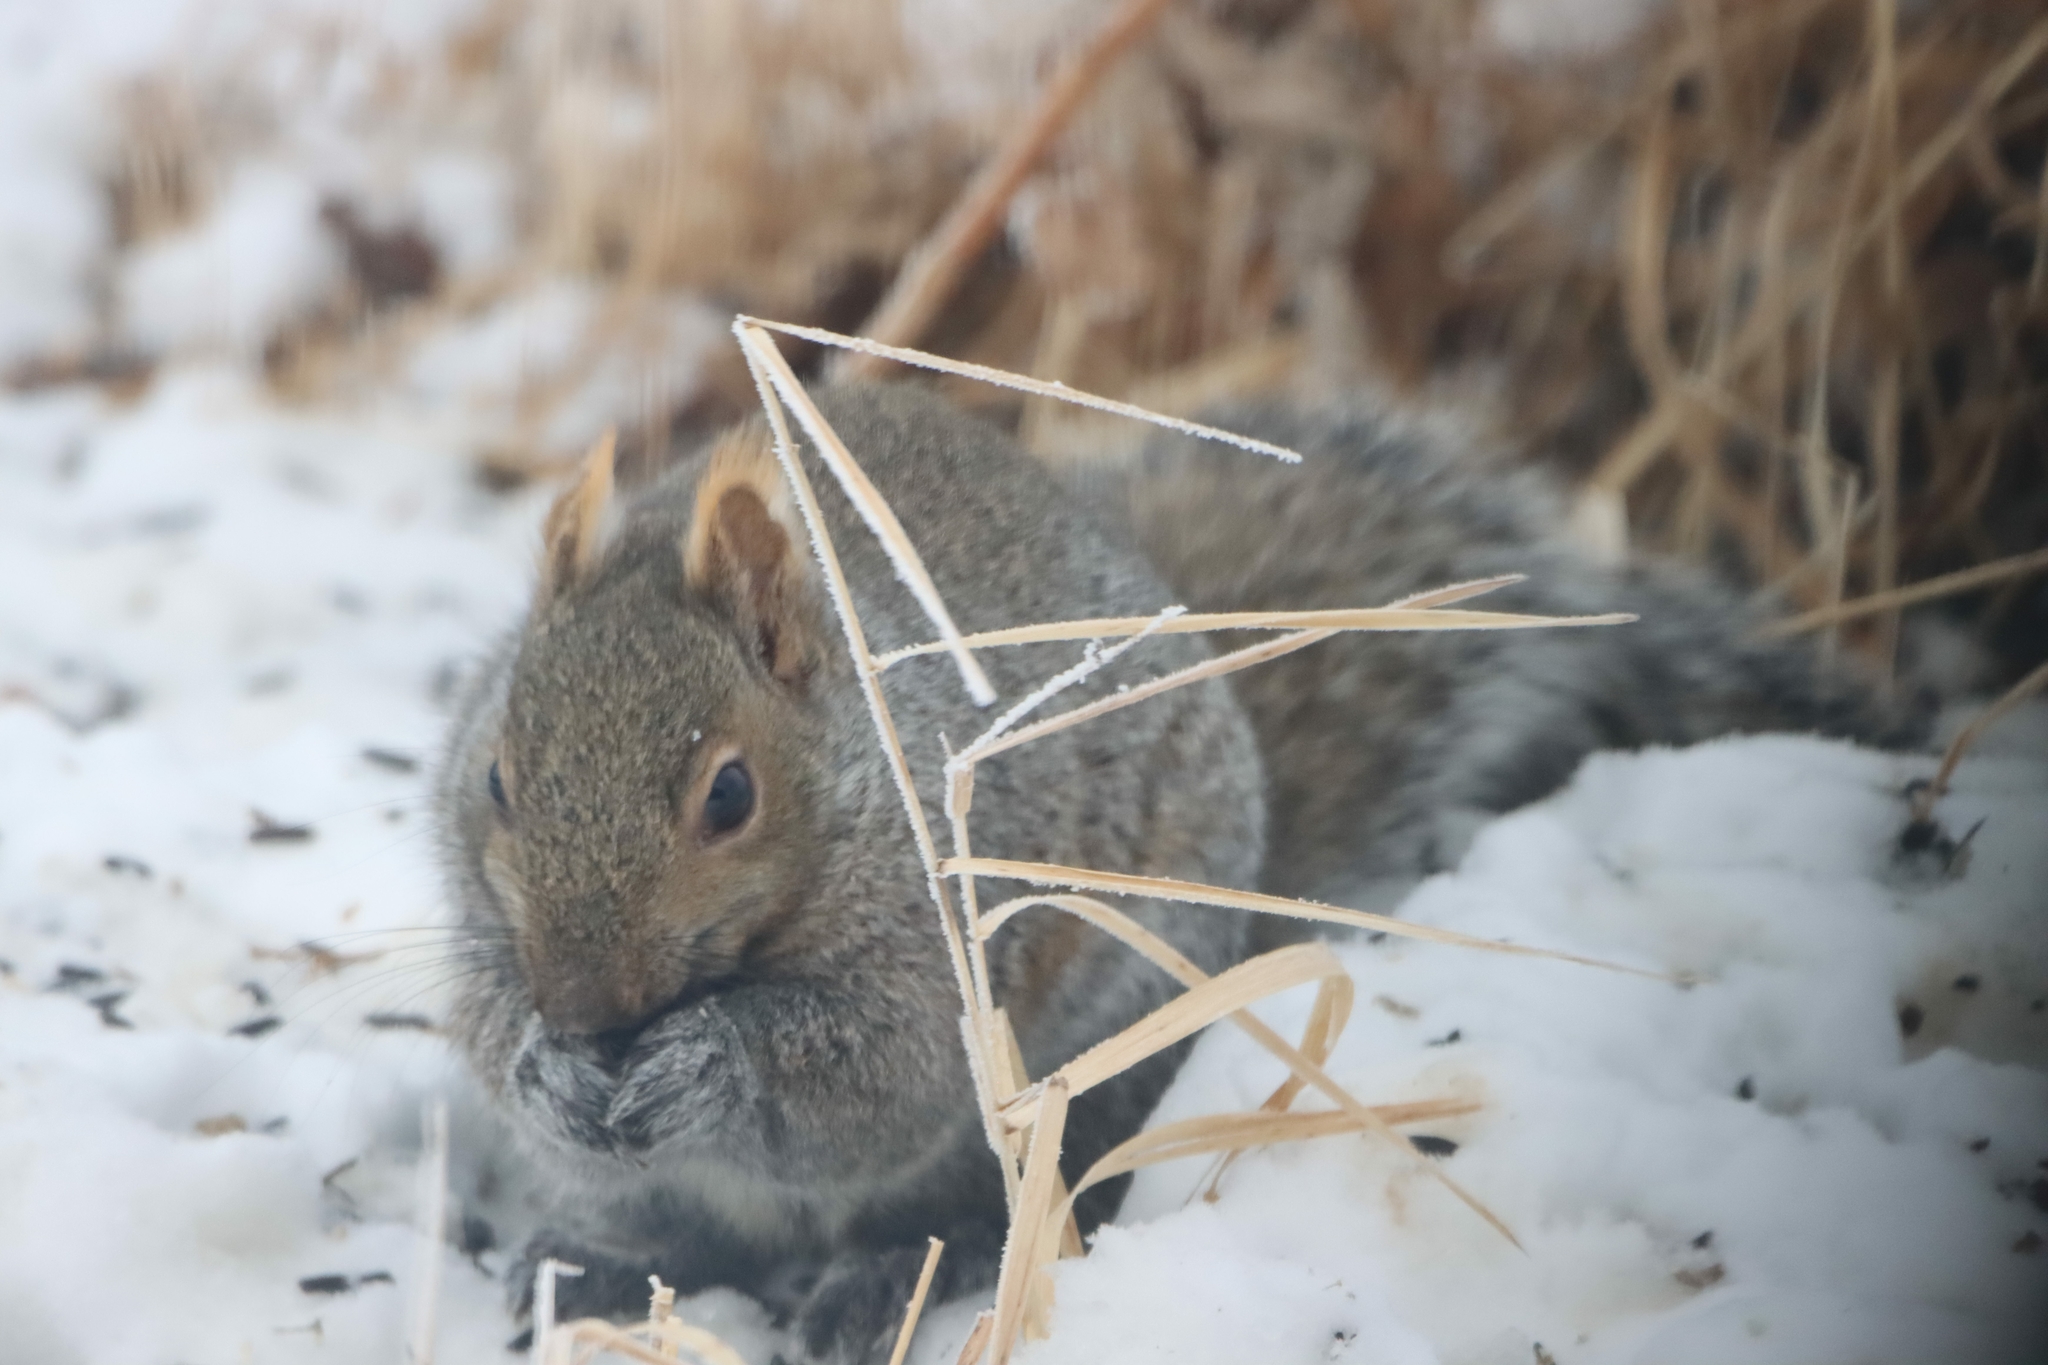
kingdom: Animalia
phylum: Chordata
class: Mammalia
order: Rodentia
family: Sciuridae
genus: Sciurus
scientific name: Sciurus carolinensis
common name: Eastern gray squirrel
